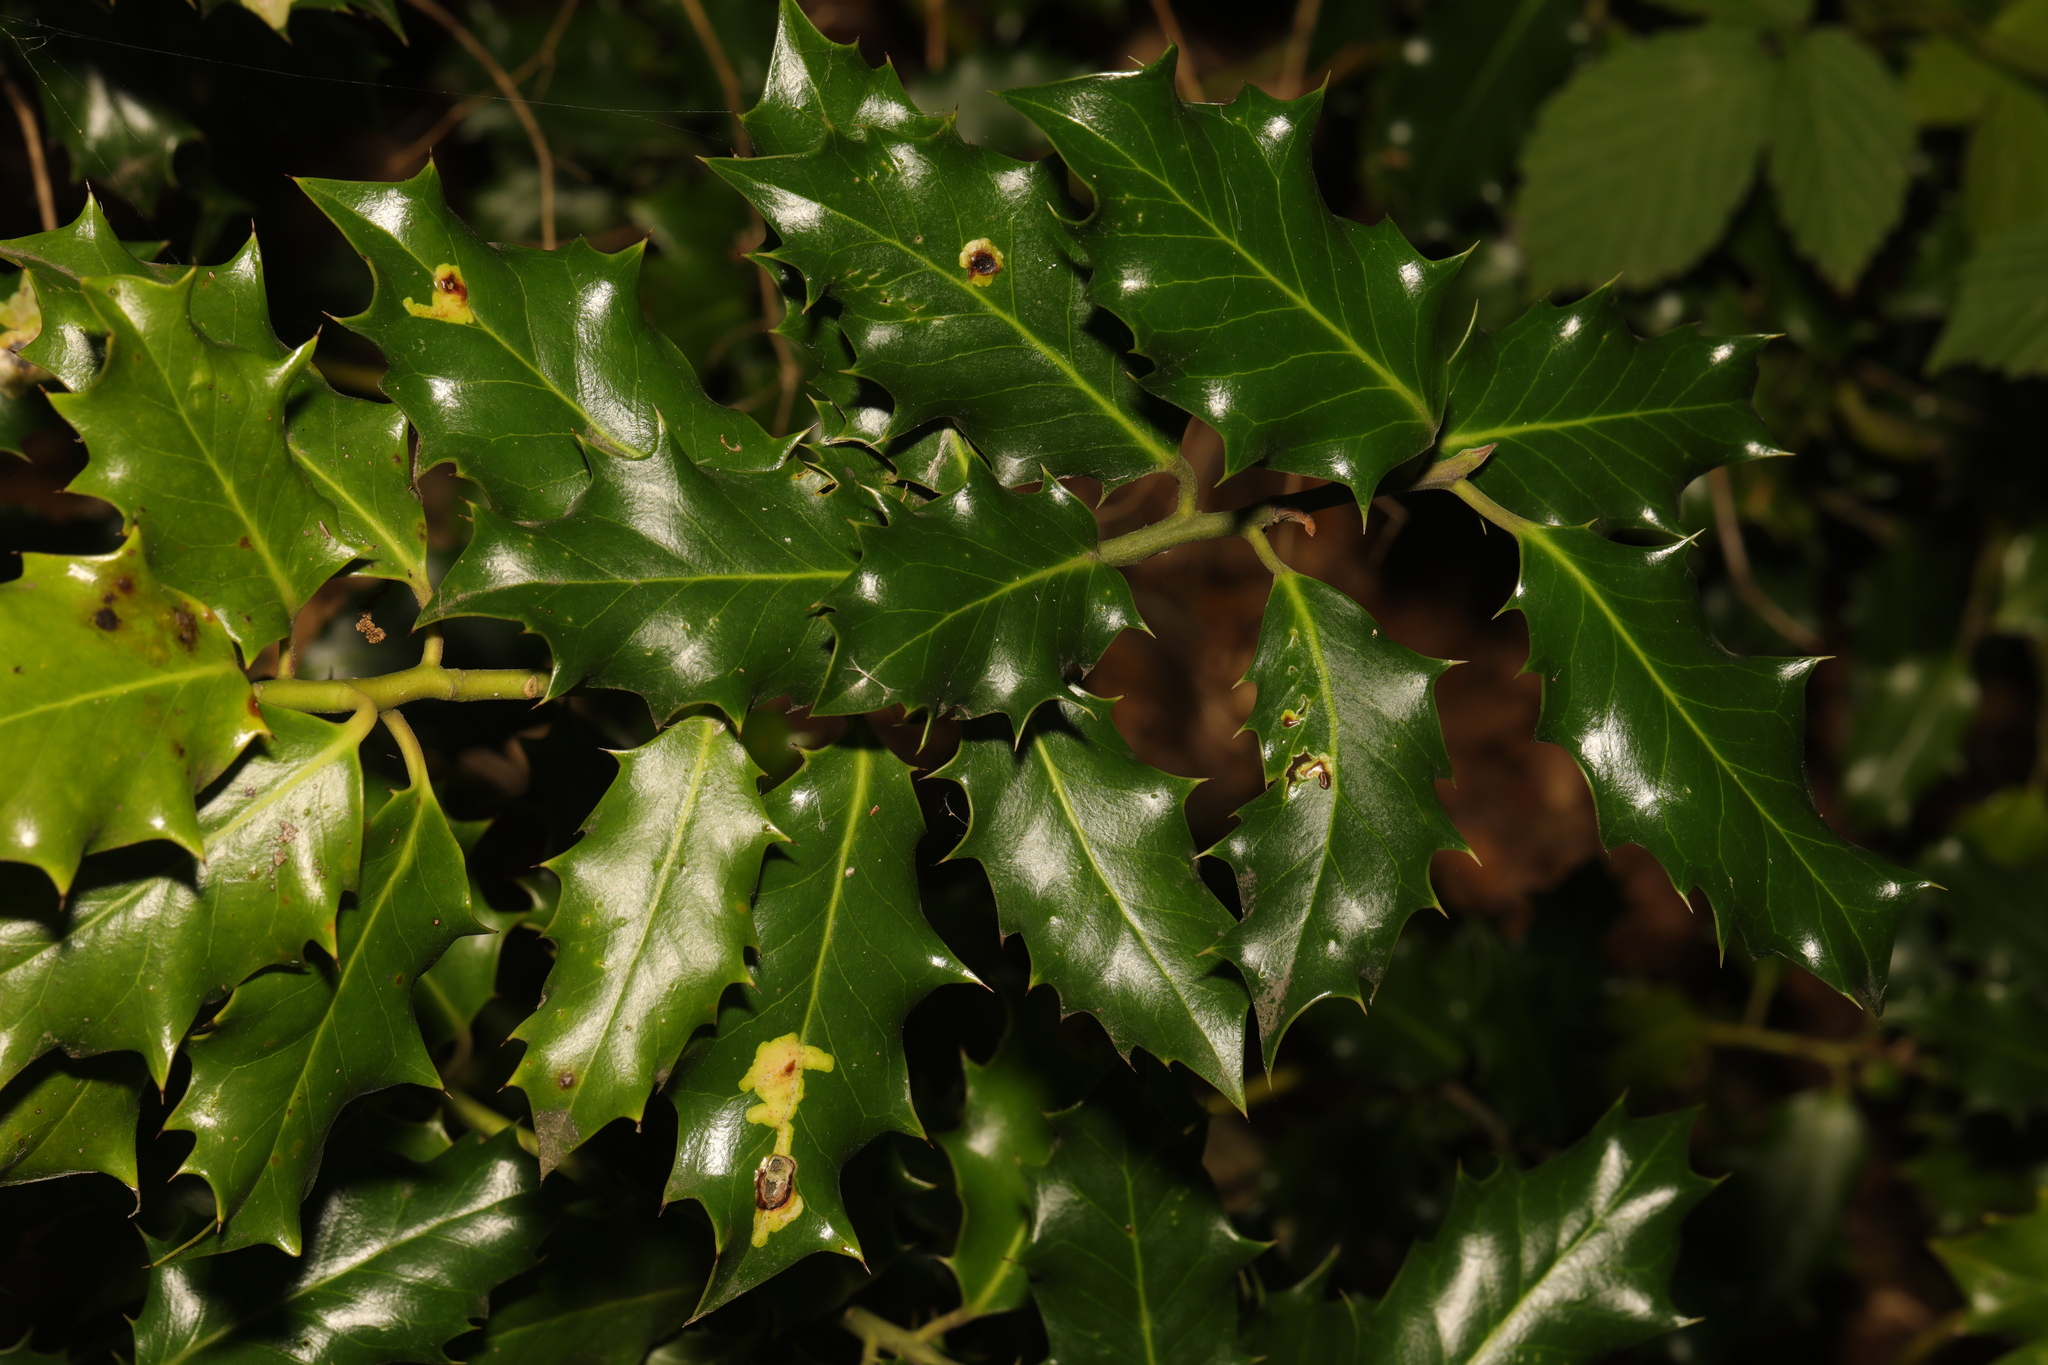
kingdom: Plantae
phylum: Tracheophyta
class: Magnoliopsida
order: Aquifoliales
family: Aquifoliaceae
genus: Ilex
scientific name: Ilex aquifolium
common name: English holly
